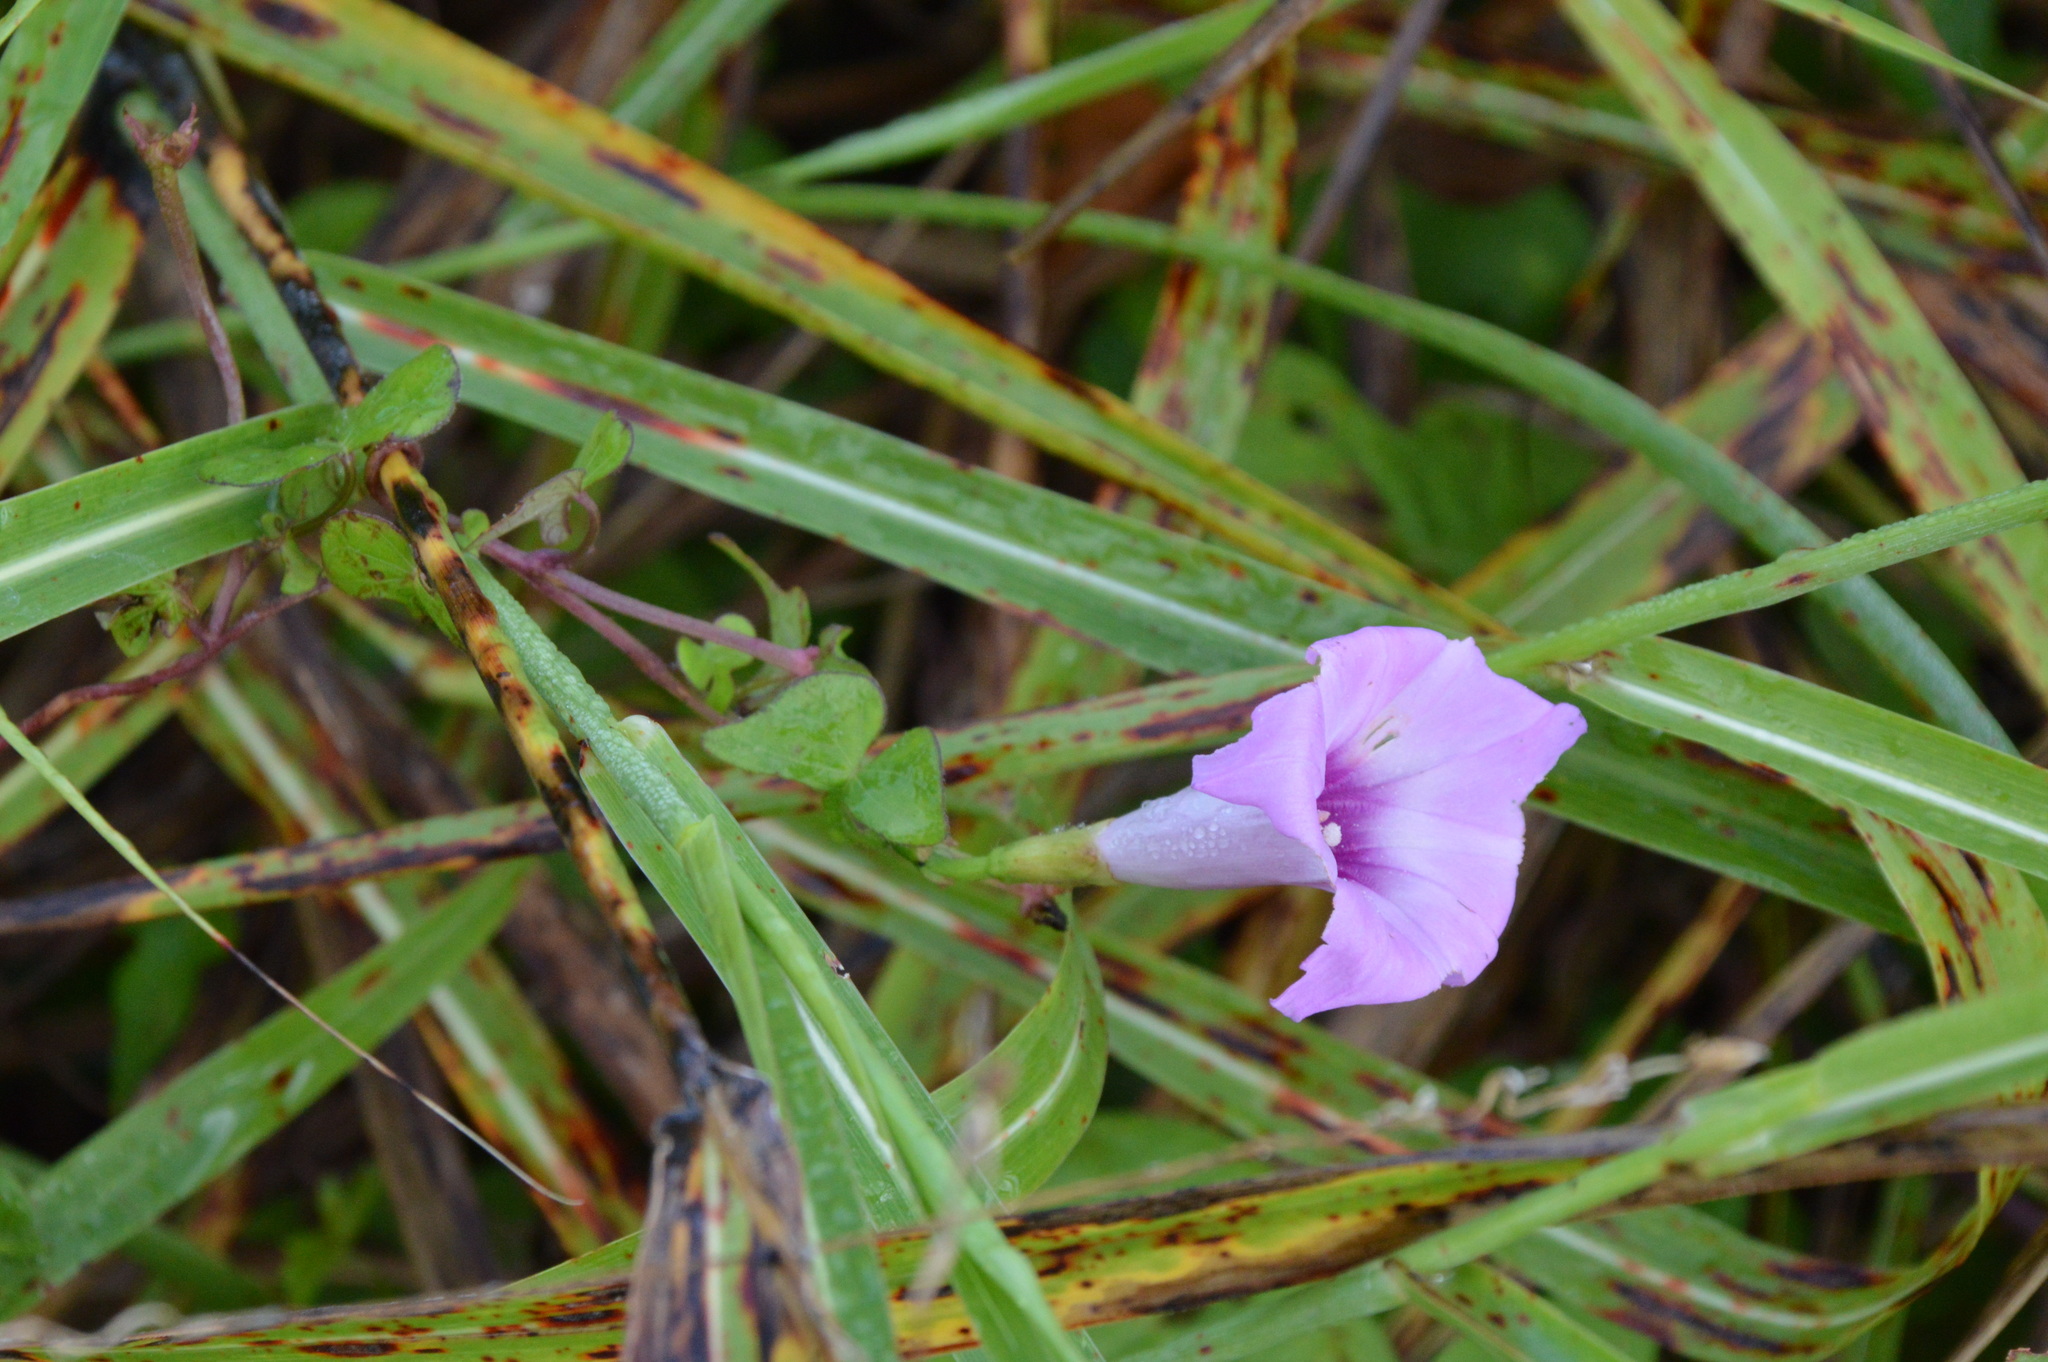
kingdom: Plantae
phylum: Tracheophyta
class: Magnoliopsida
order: Solanales
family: Convolvulaceae
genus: Ipomoea
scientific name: Ipomoea cordatotriloba
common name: Cotton morning glory
